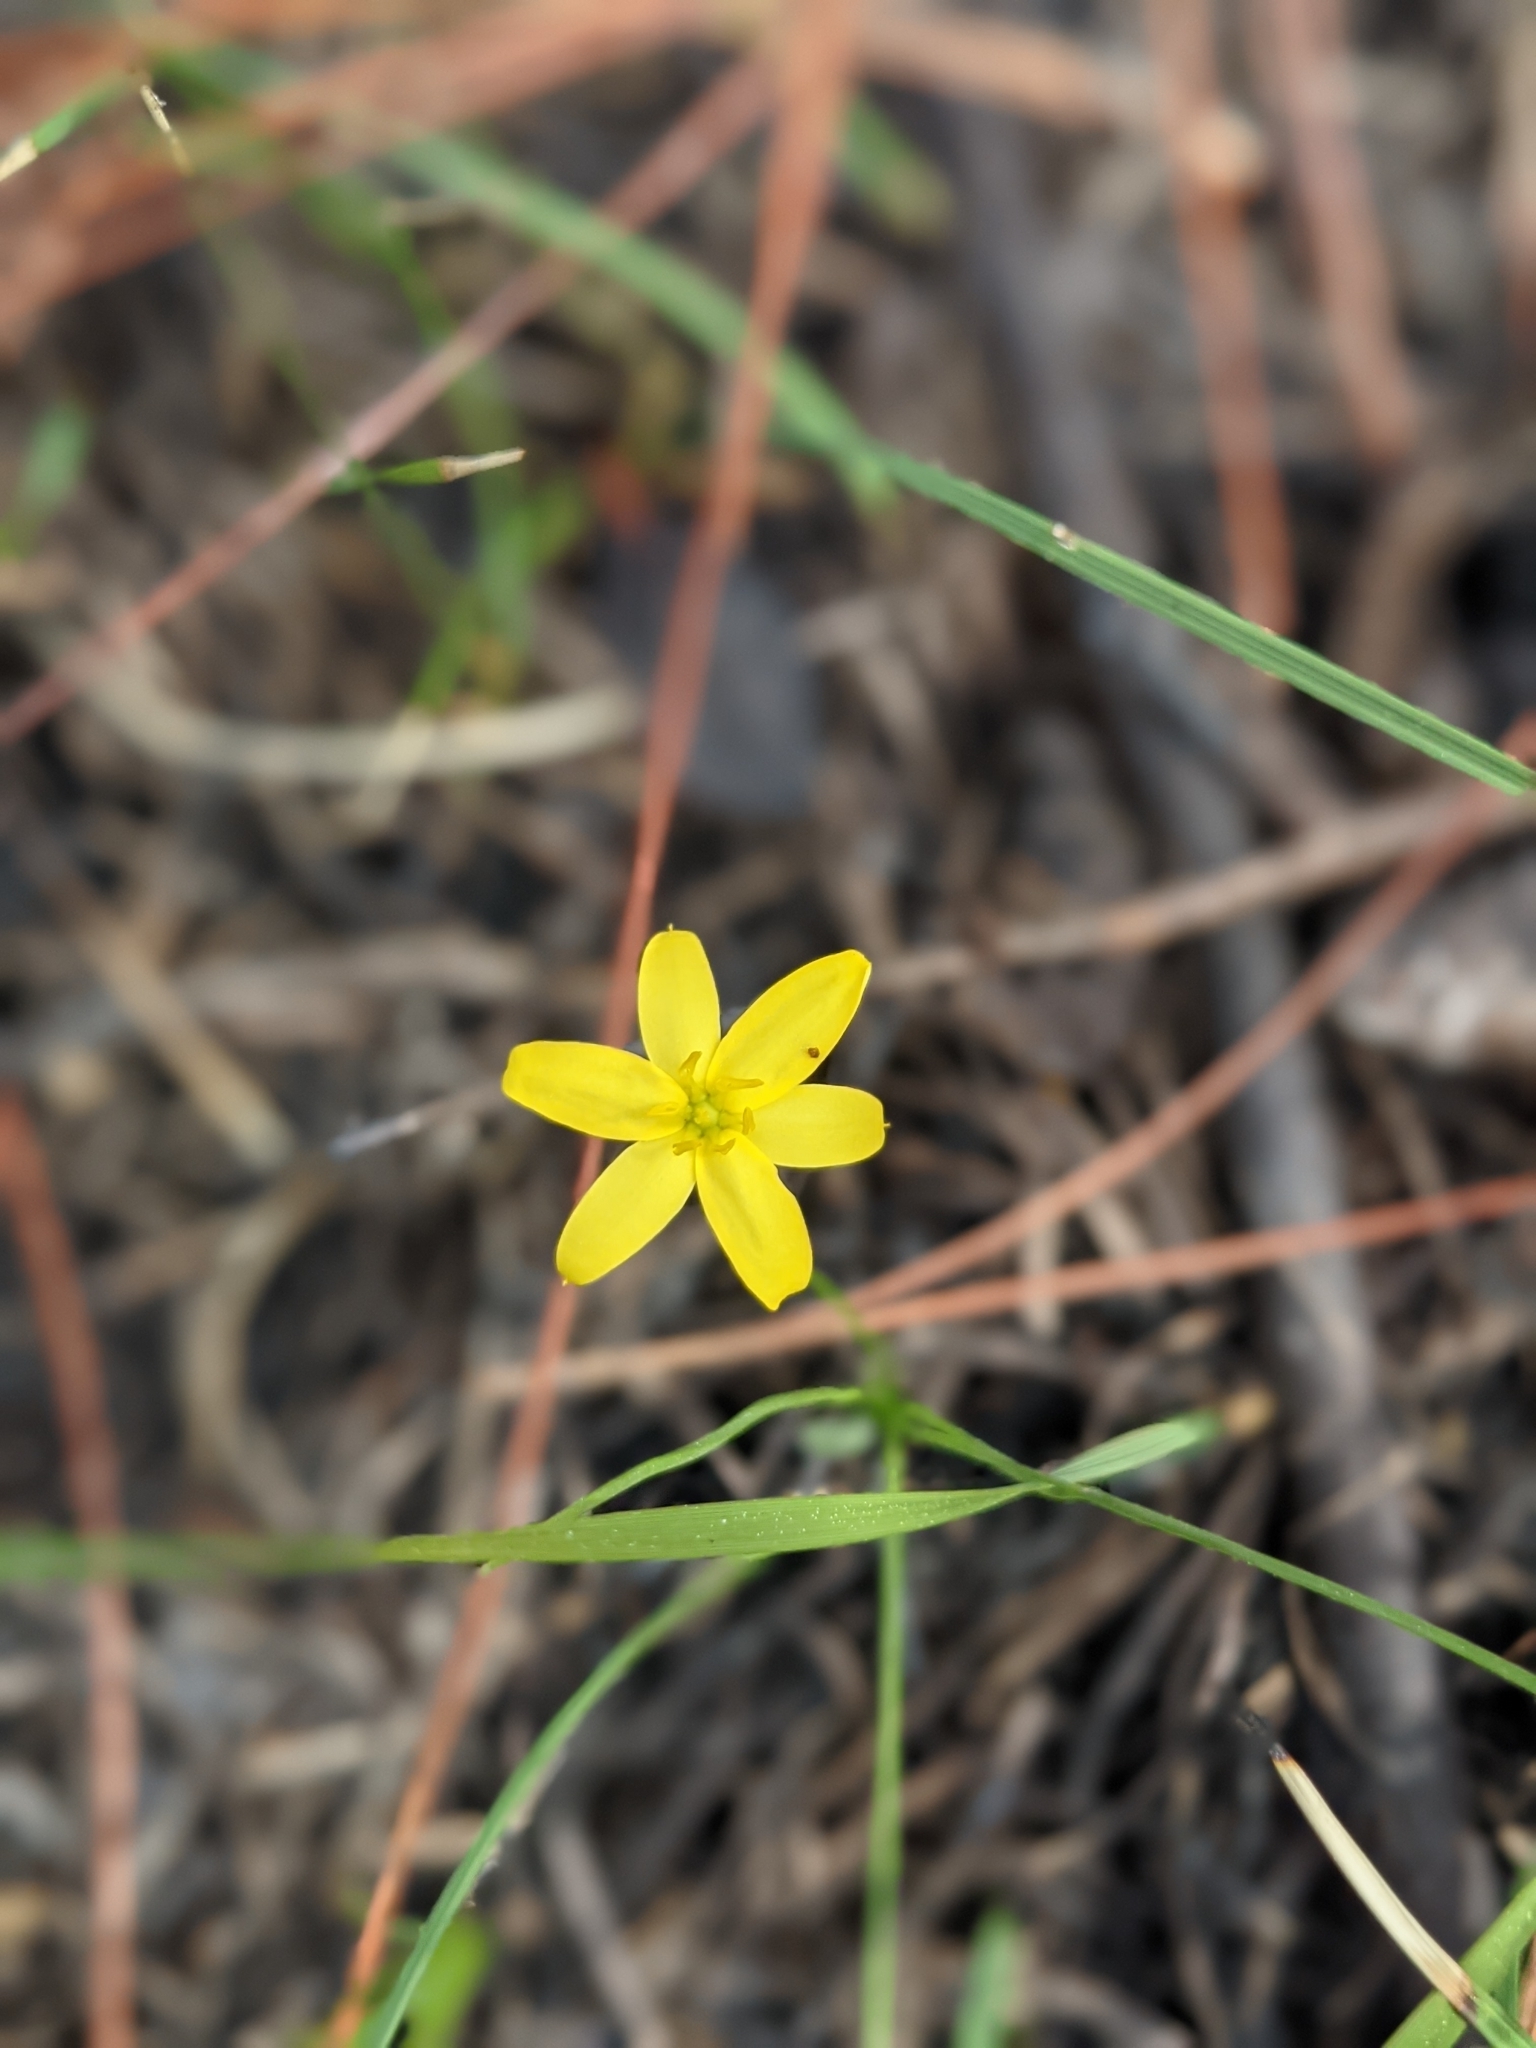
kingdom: Plantae
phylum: Tracheophyta
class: Liliopsida
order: Asparagales
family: Hypoxidaceae
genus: Hypoxis
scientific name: Hypoxis juncea
